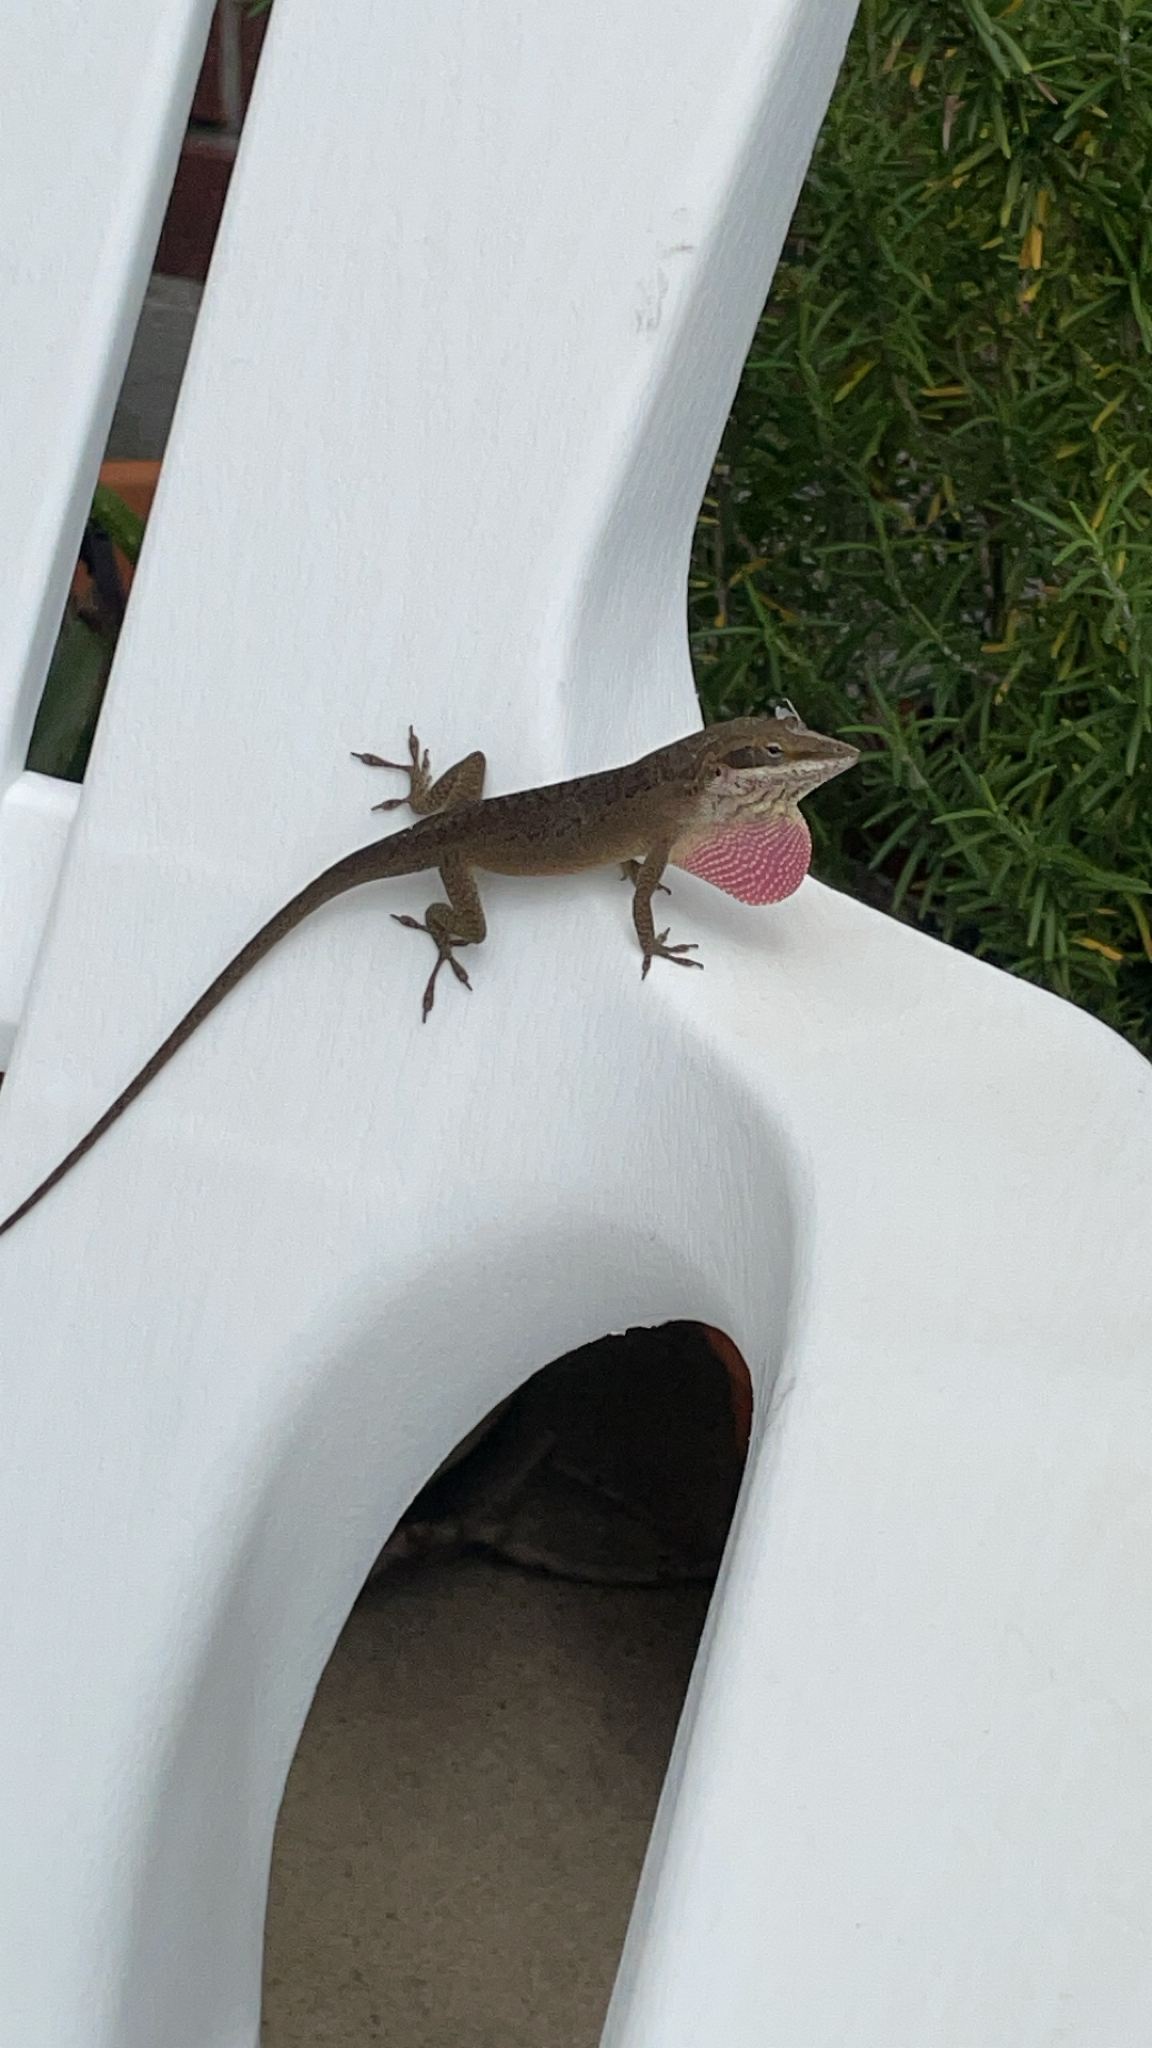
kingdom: Animalia
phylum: Chordata
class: Squamata
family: Dactyloidae
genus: Anolis
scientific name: Anolis carolinensis
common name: Green anole
